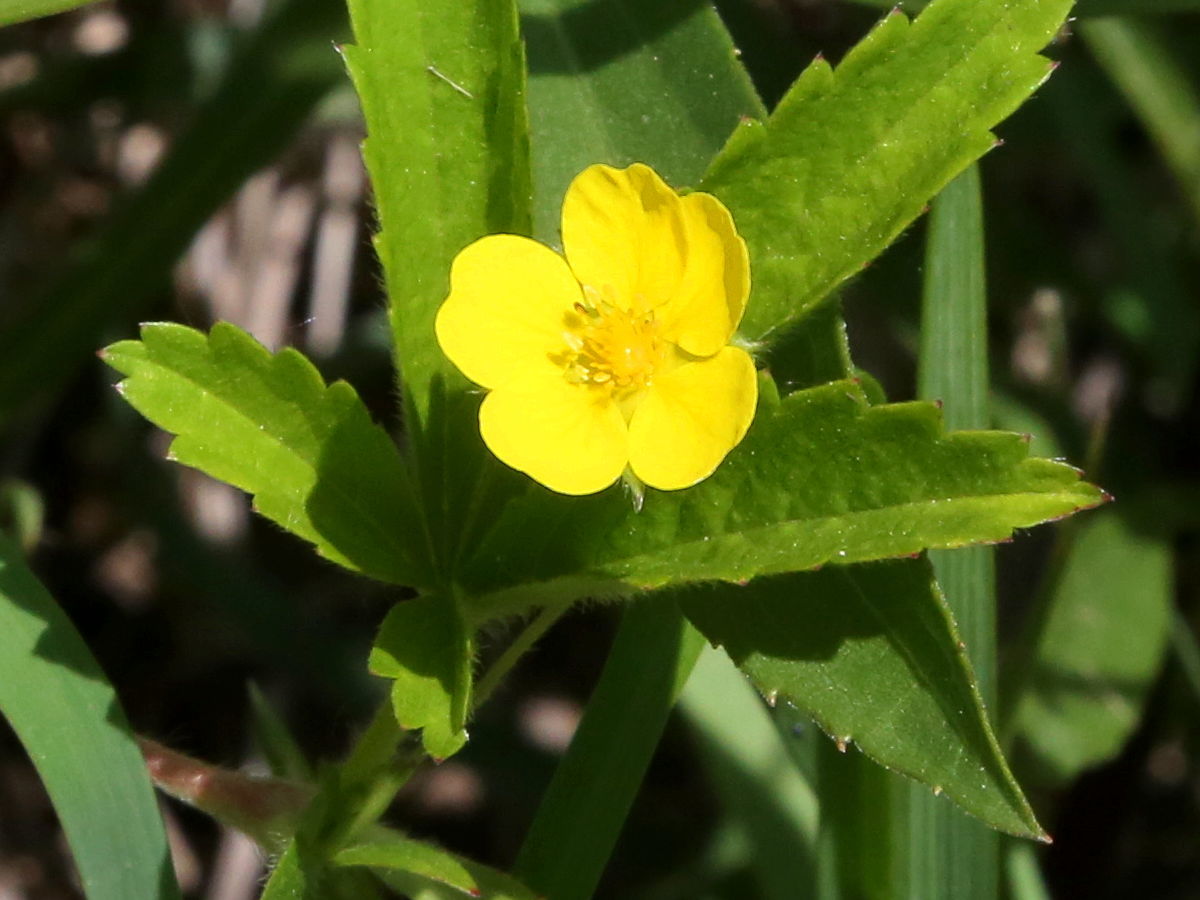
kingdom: Plantae
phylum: Tracheophyta
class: Magnoliopsida
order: Rosales
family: Rosaceae
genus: Potentilla
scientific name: Potentilla simplex
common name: Old field cinquefoil
